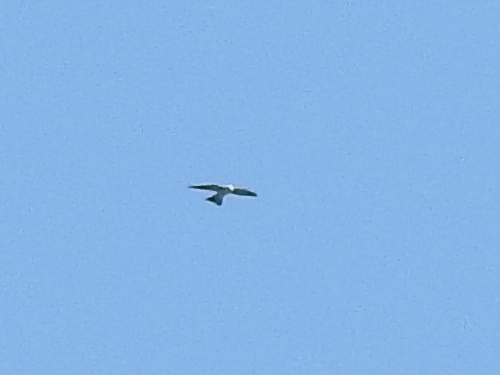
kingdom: Animalia
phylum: Chordata
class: Aves
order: Accipitriformes
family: Accipitridae
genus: Ictinia
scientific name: Ictinia mississippiensis
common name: Mississippi kite
